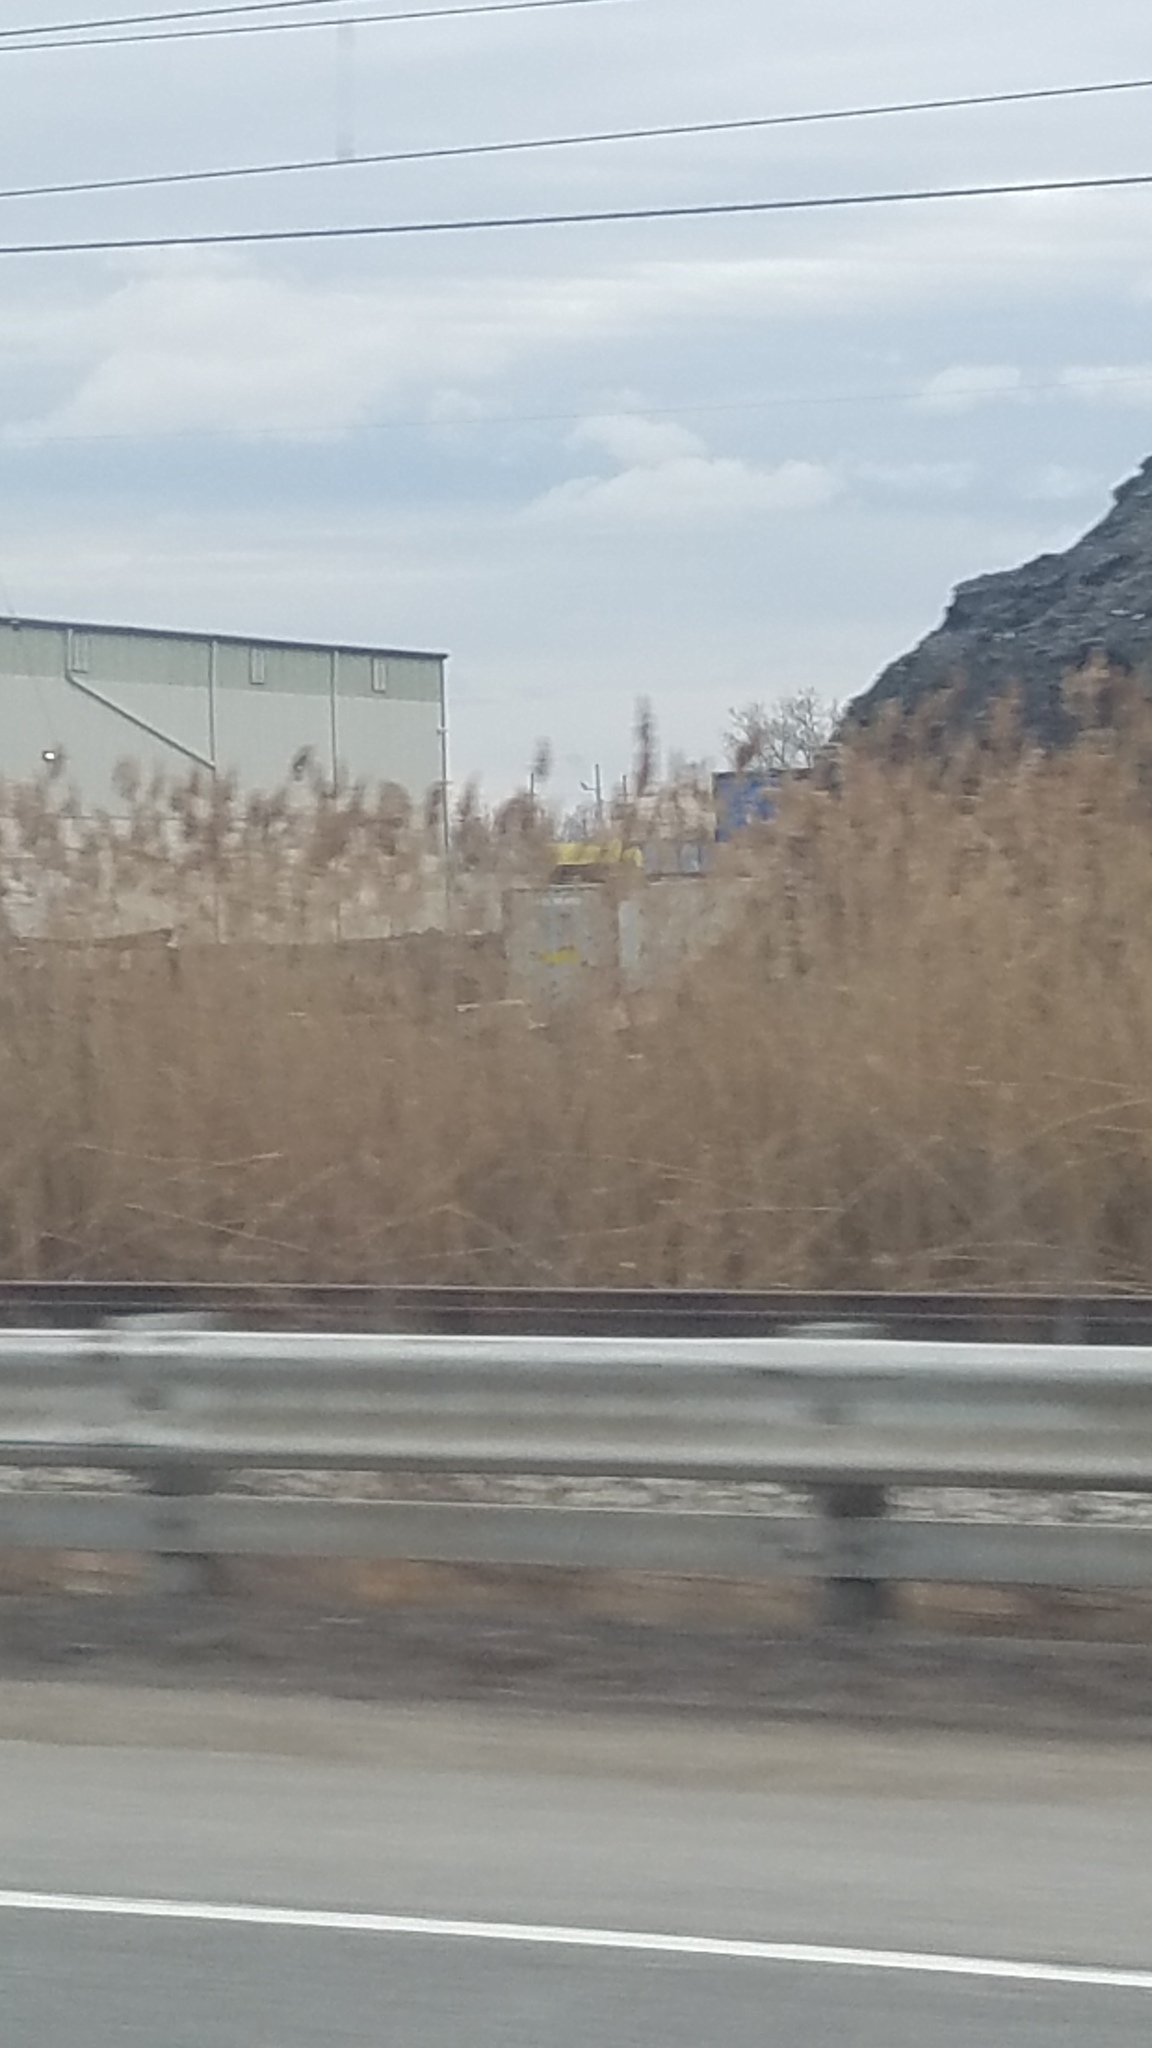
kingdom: Plantae
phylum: Tracheophyta
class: Liliopsida
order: Poales
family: Poaceae
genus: Phragmites
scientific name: Phragmites australis
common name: Common reed
